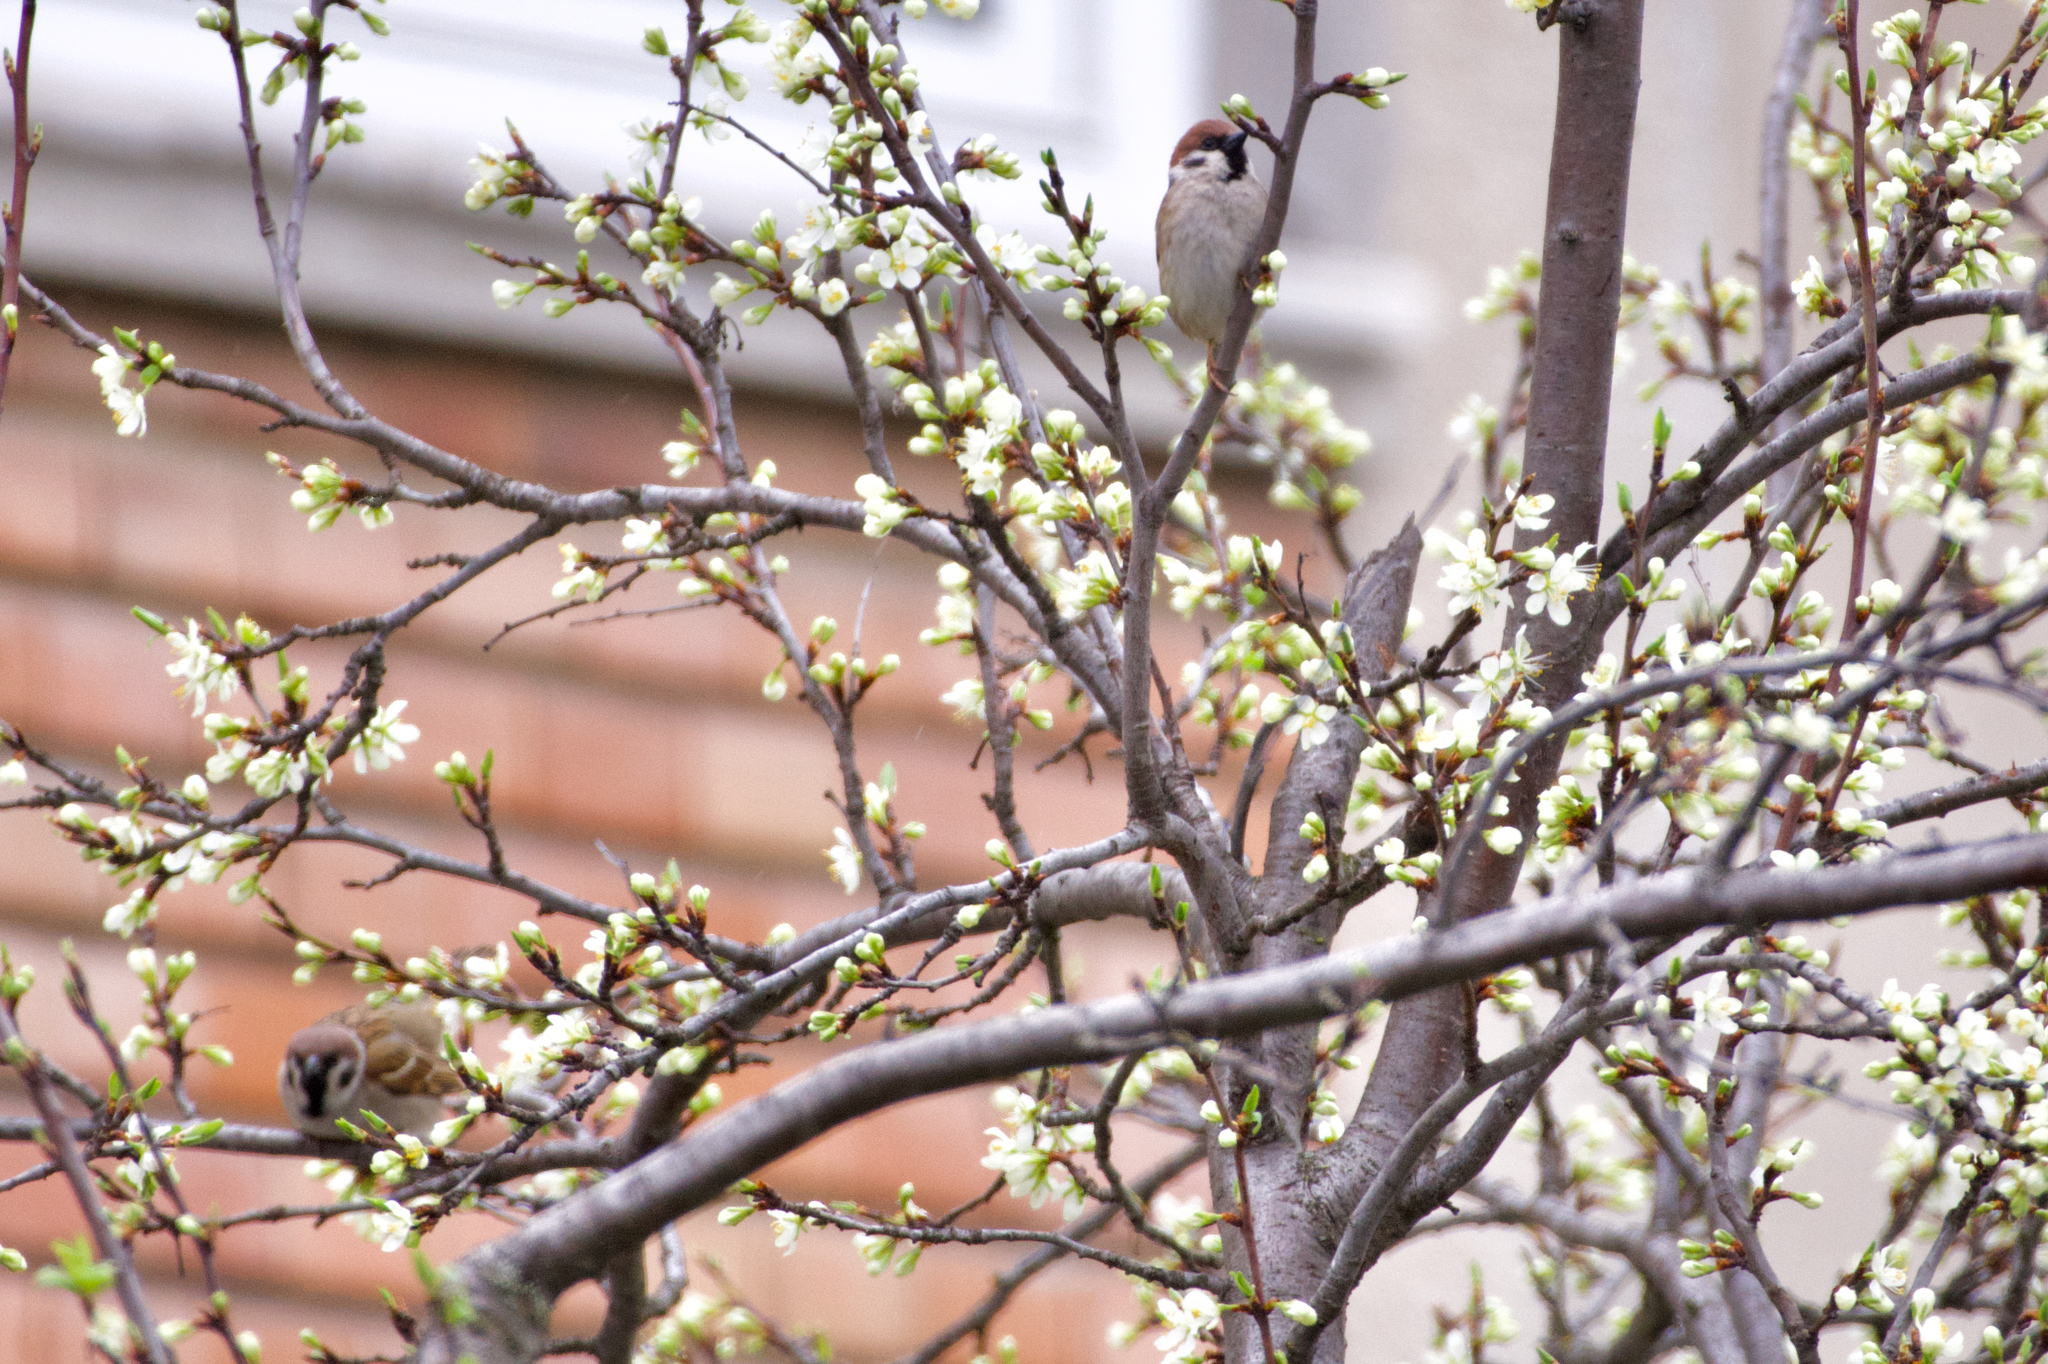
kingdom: Animalia
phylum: Chordata
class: Aves
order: Passeriformes
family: Passeridae
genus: Passer
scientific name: Passer montanus
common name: Eurasian tree sparrow
